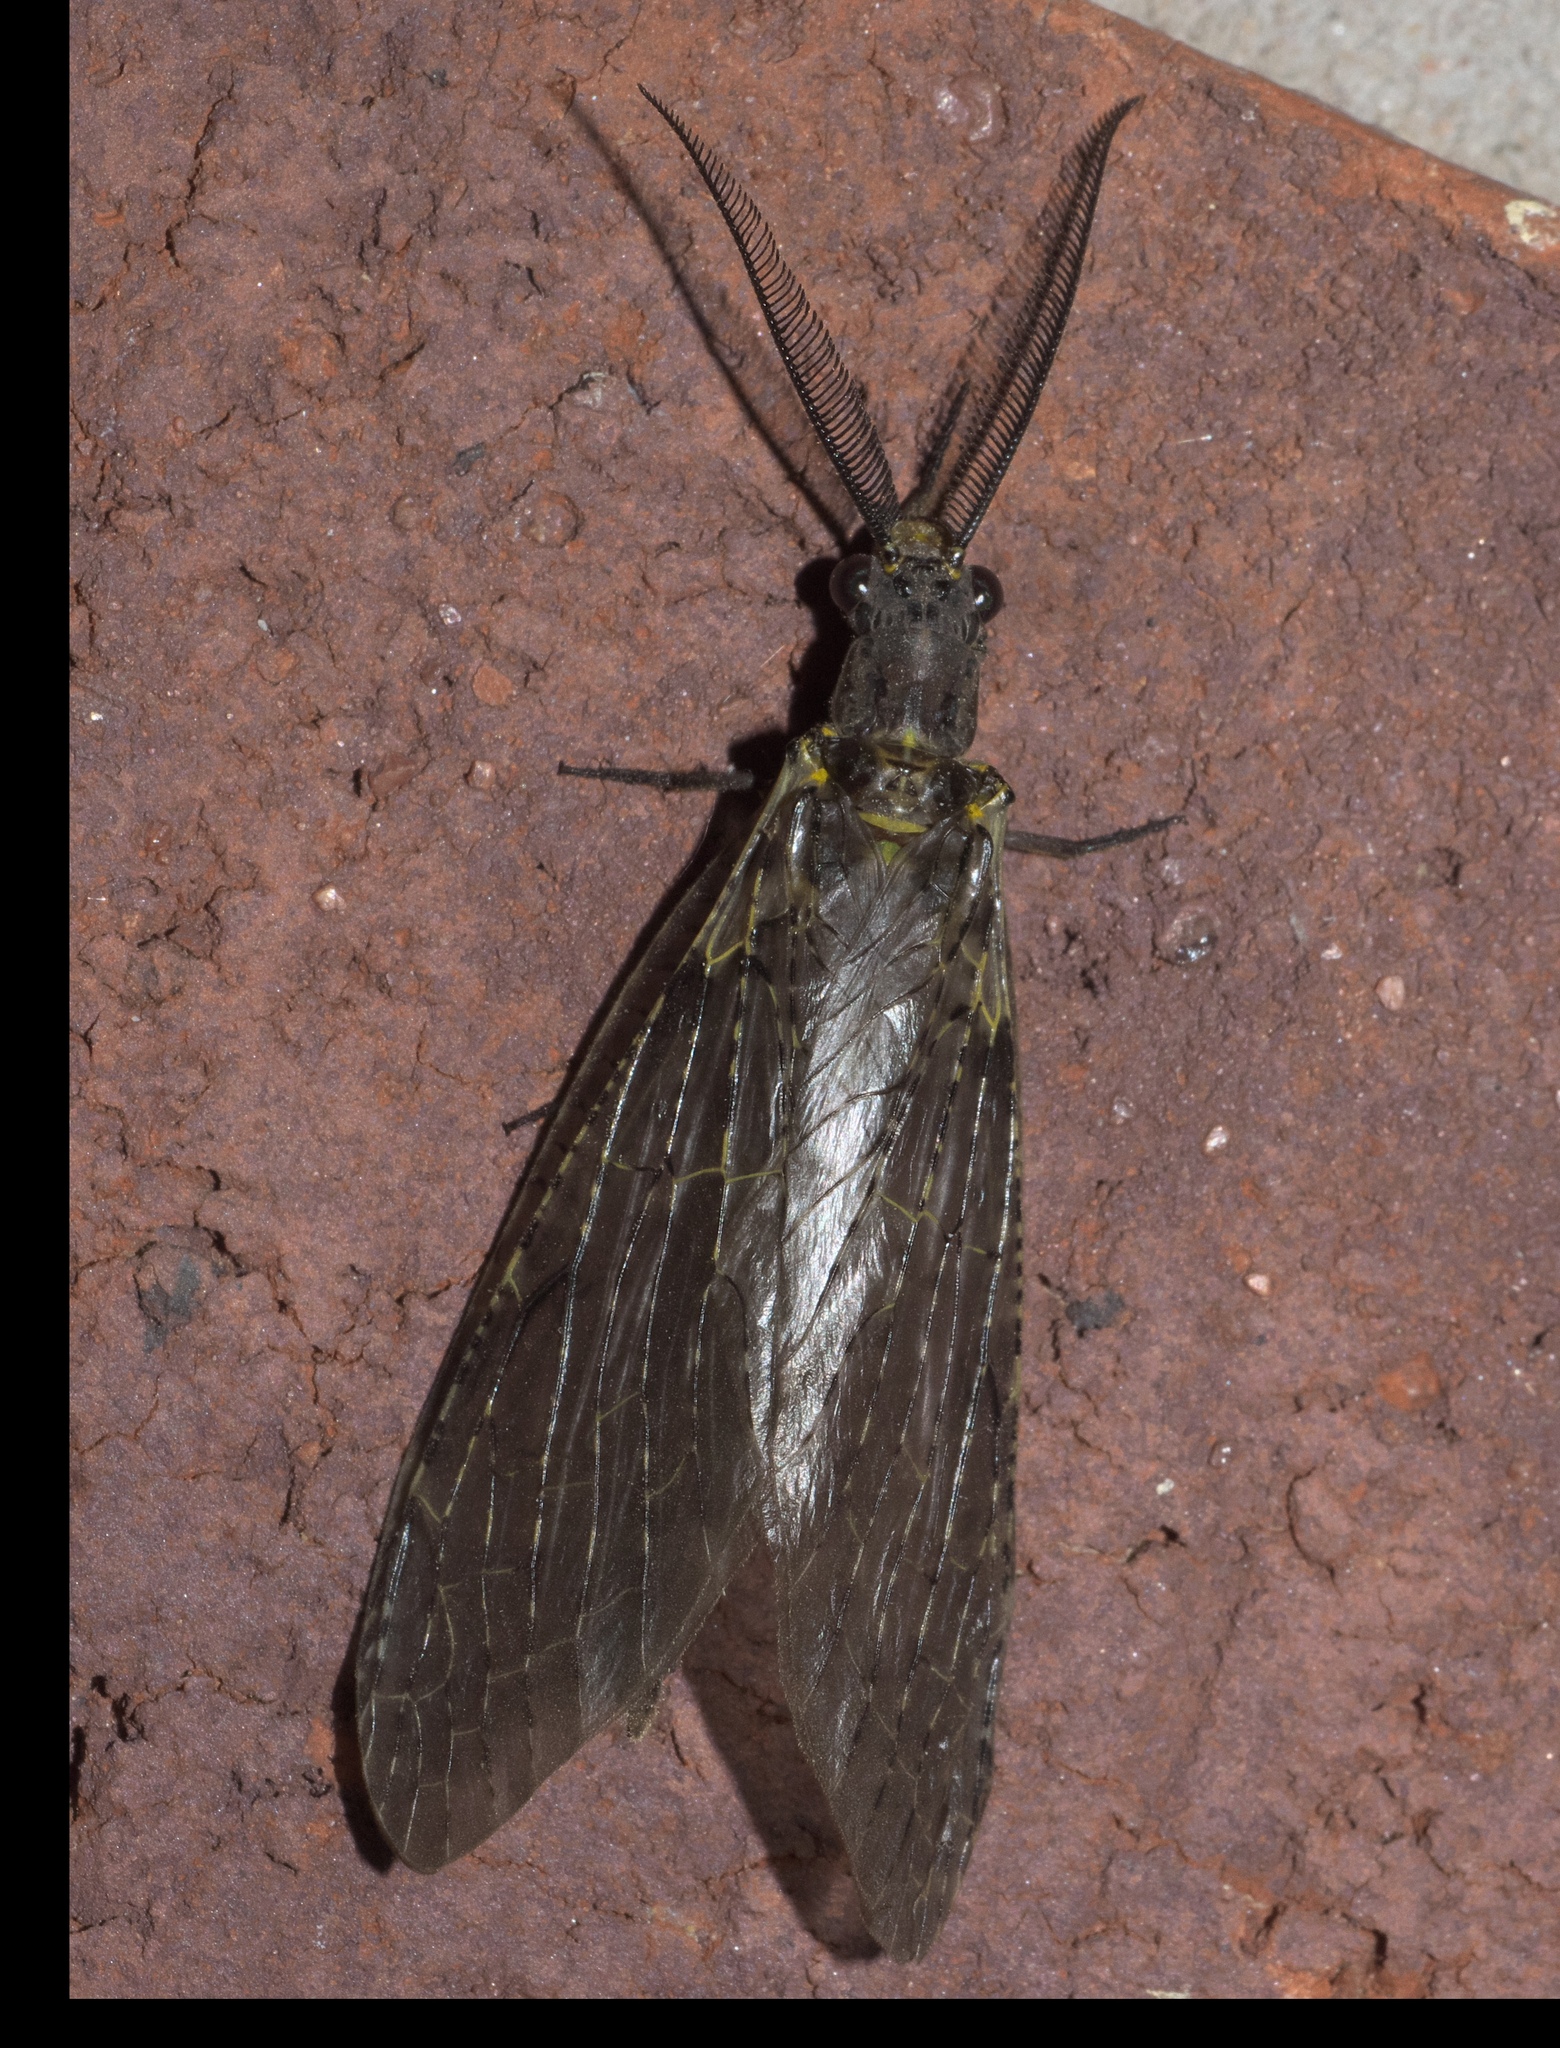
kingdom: Animalia
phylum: Arthropoda
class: Insecta
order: Megaloptera
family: Corydalidae
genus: Chauliodes
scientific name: Chauliodes rastricornis
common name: Spring fishfly
